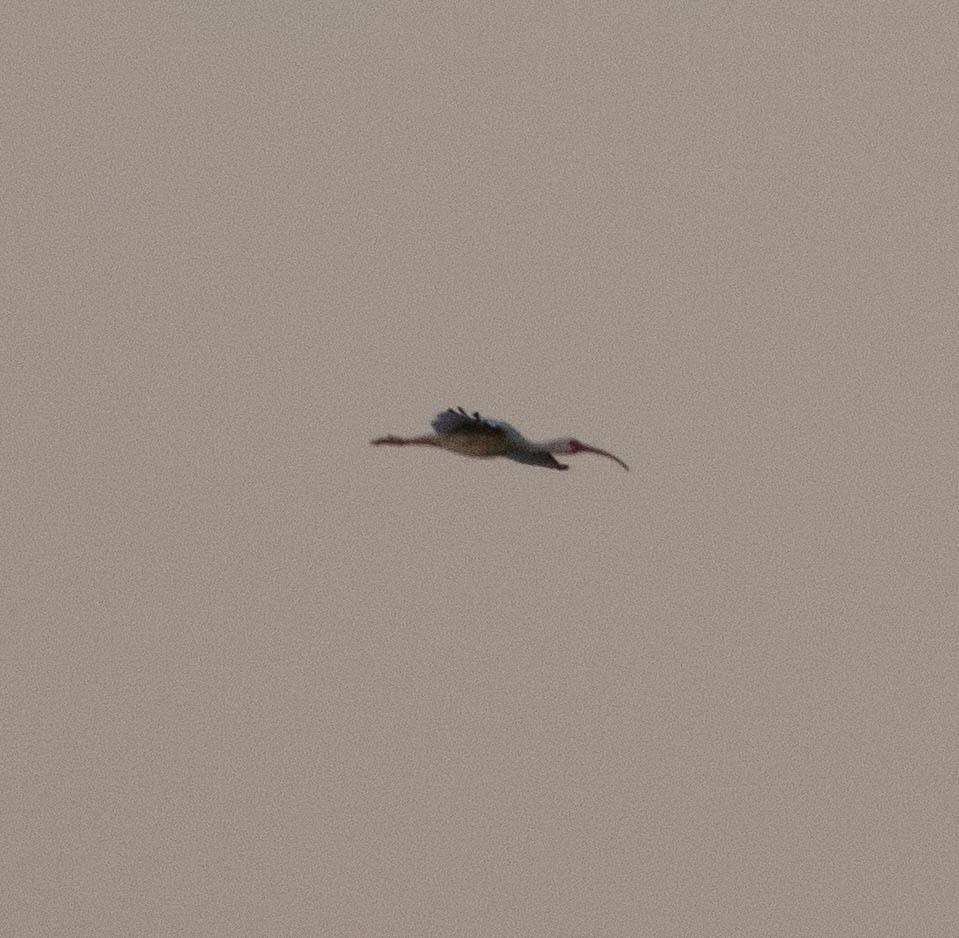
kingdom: Animalia
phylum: Chordata
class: Aves
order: Pelecaniformes
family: Threskiornithidae
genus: Eudocimus
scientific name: Eudocimus albus
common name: White ibis
